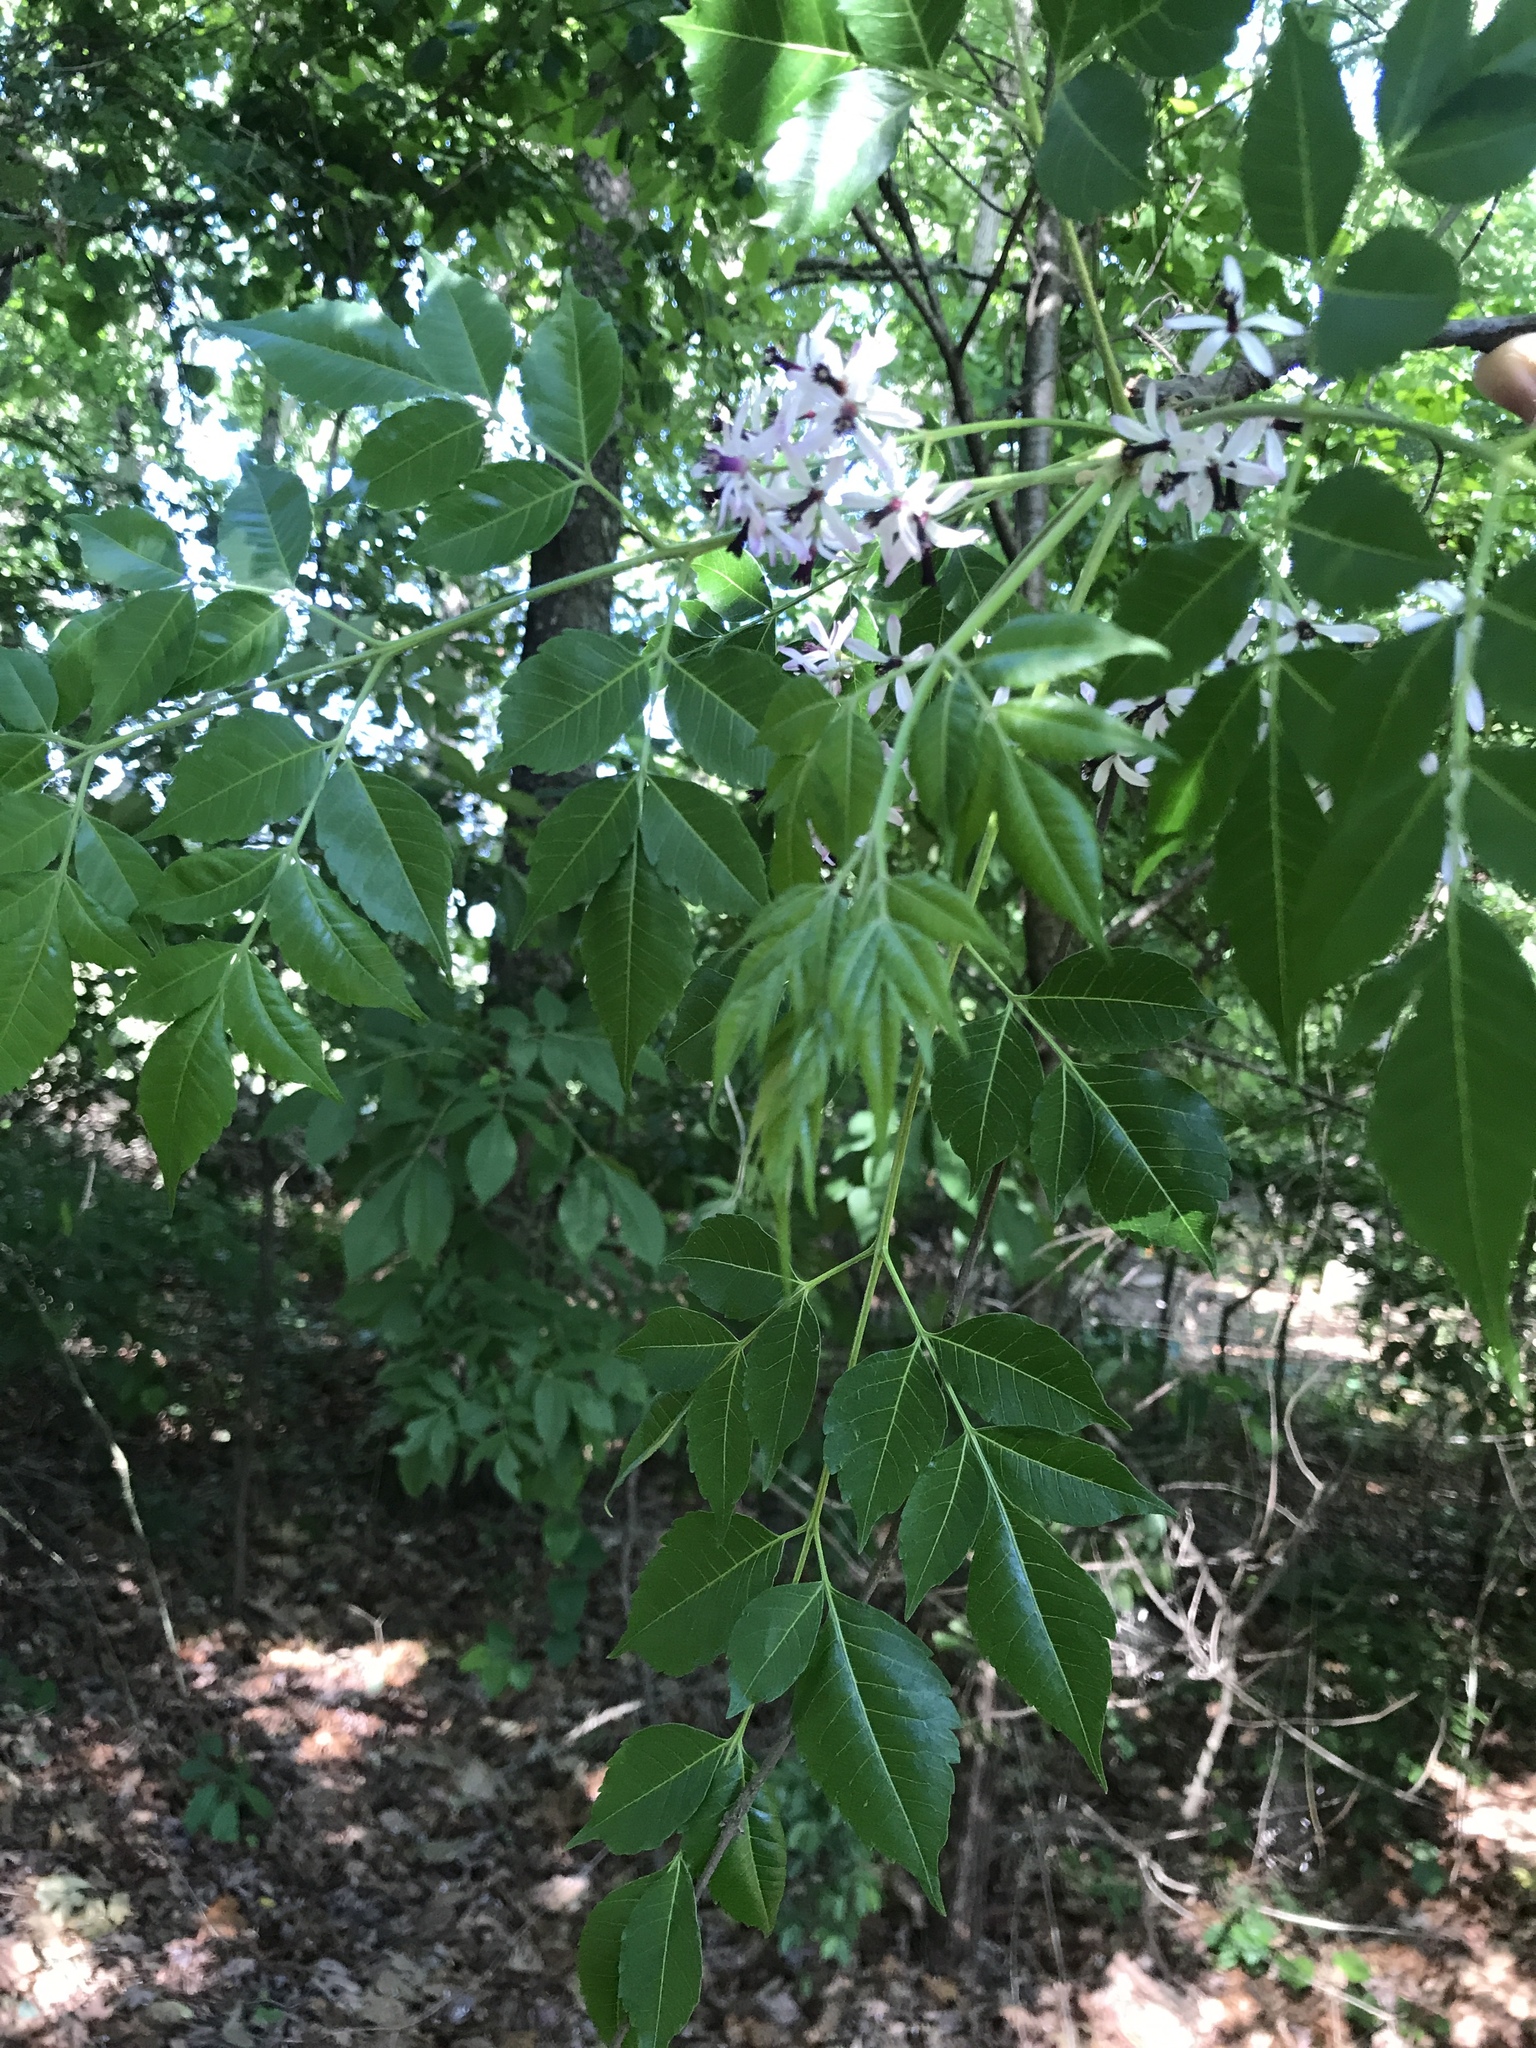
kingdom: Plantae
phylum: Tracheophyta
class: Magnoliopsida
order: Sapindales
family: Meliaceae
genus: Melia
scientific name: Melia azedarach
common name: Chinaberrytree
